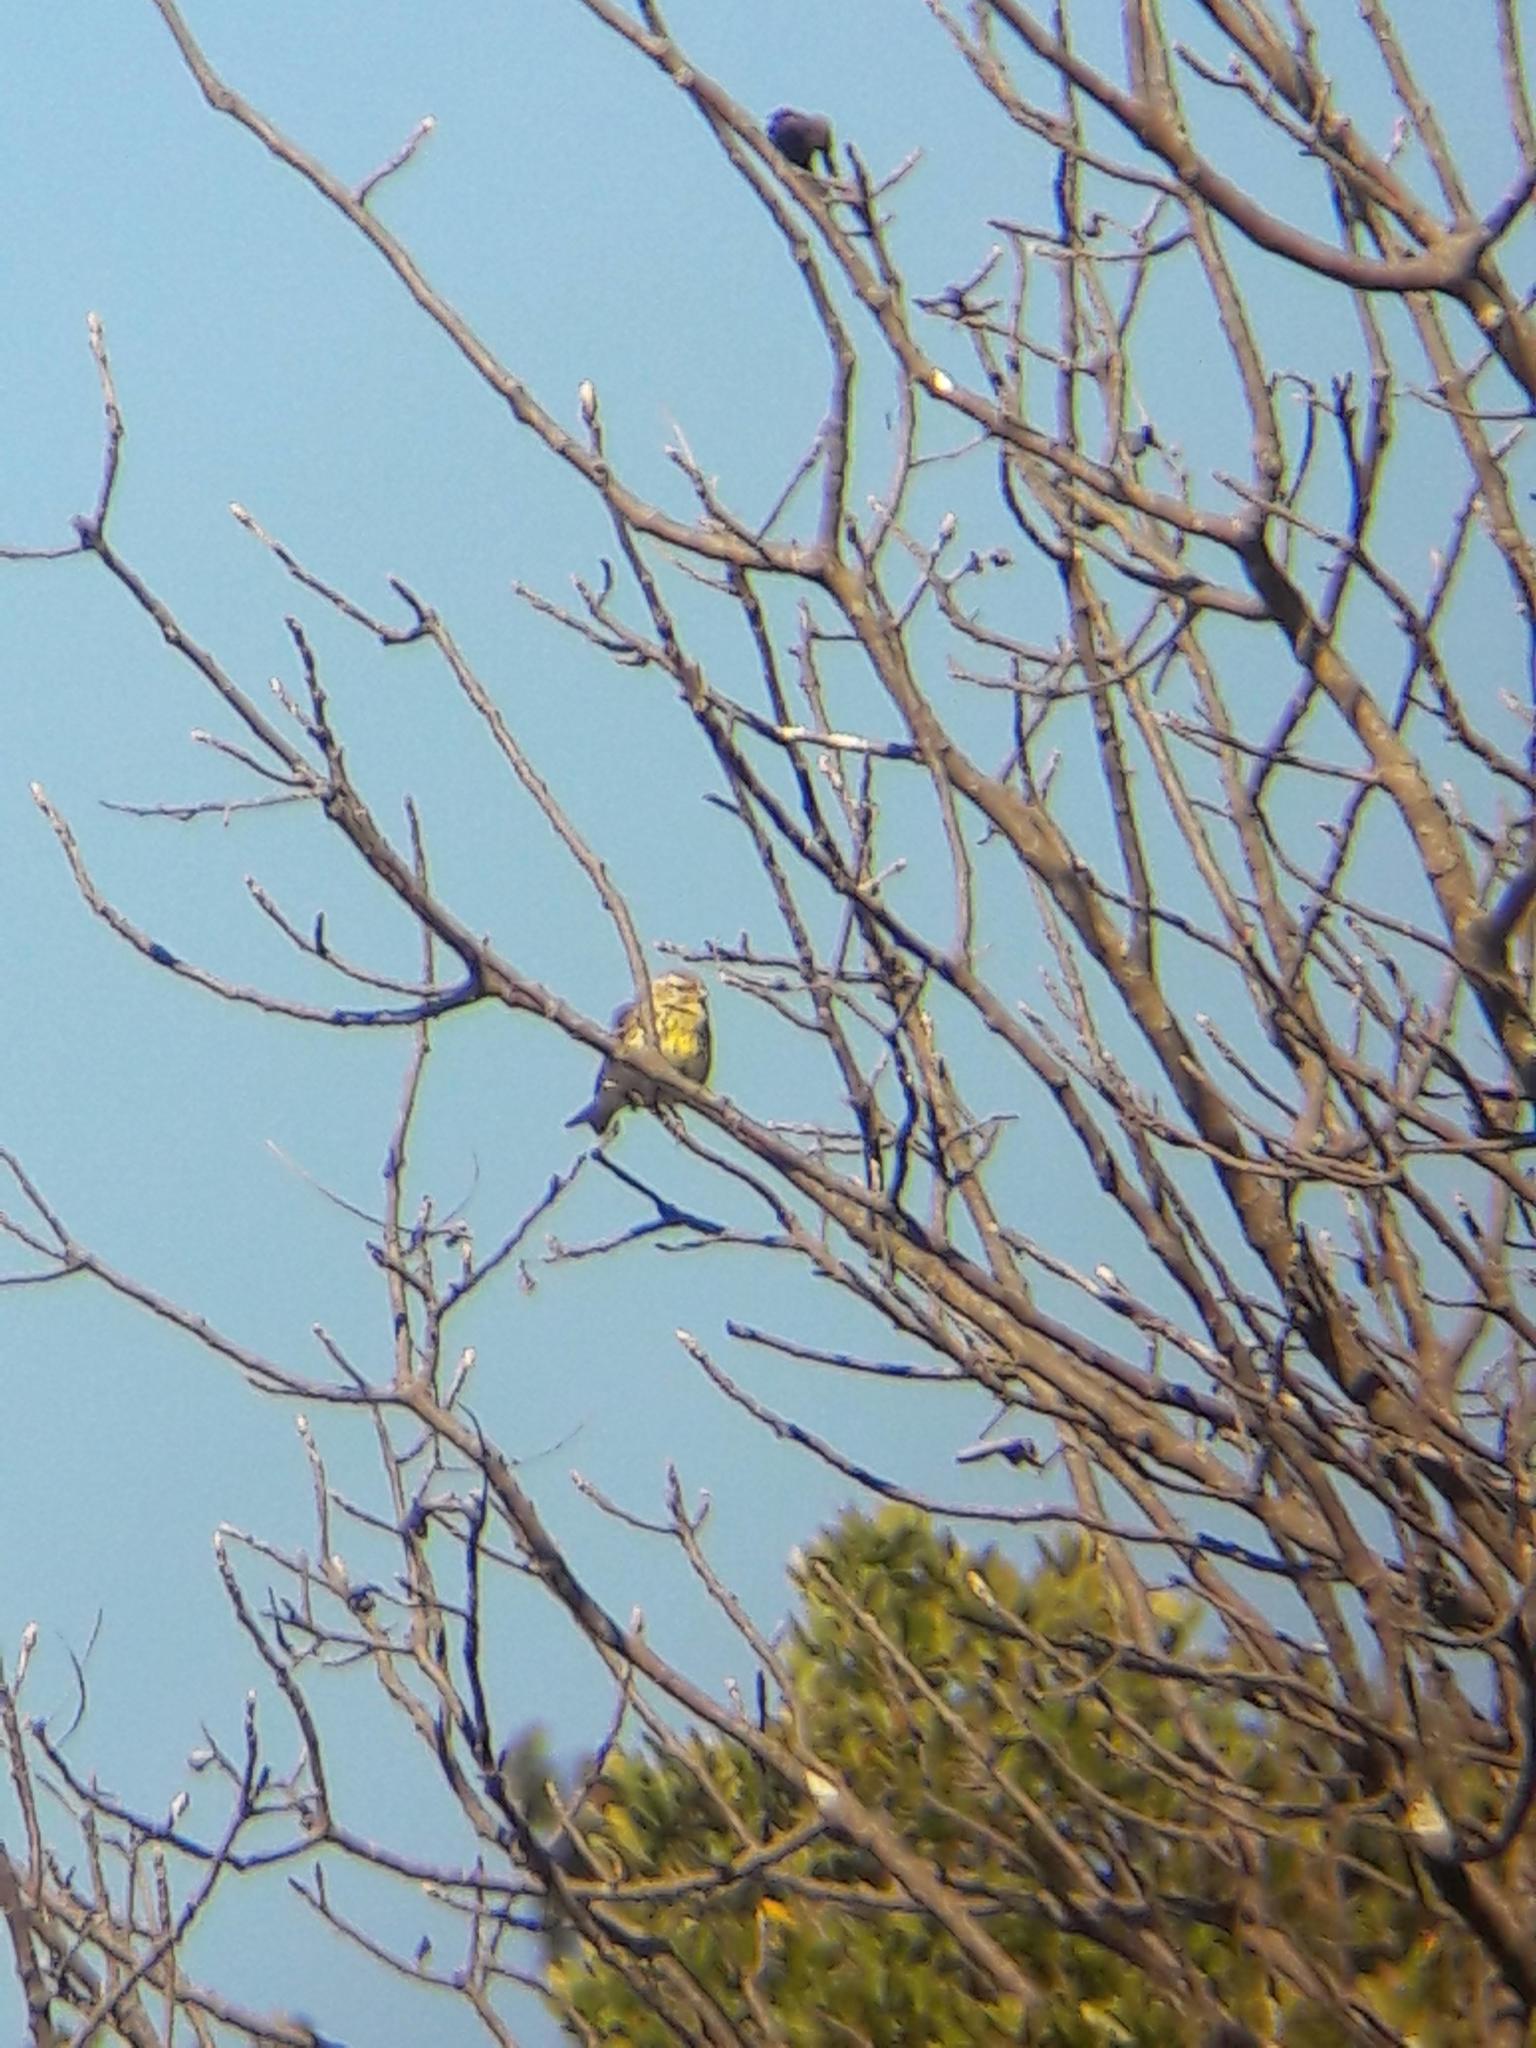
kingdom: Animalia
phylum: Chordata
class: Aves
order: Passeriformes
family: Fringillidae
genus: Serinus
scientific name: Serinus serinus
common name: European serin
